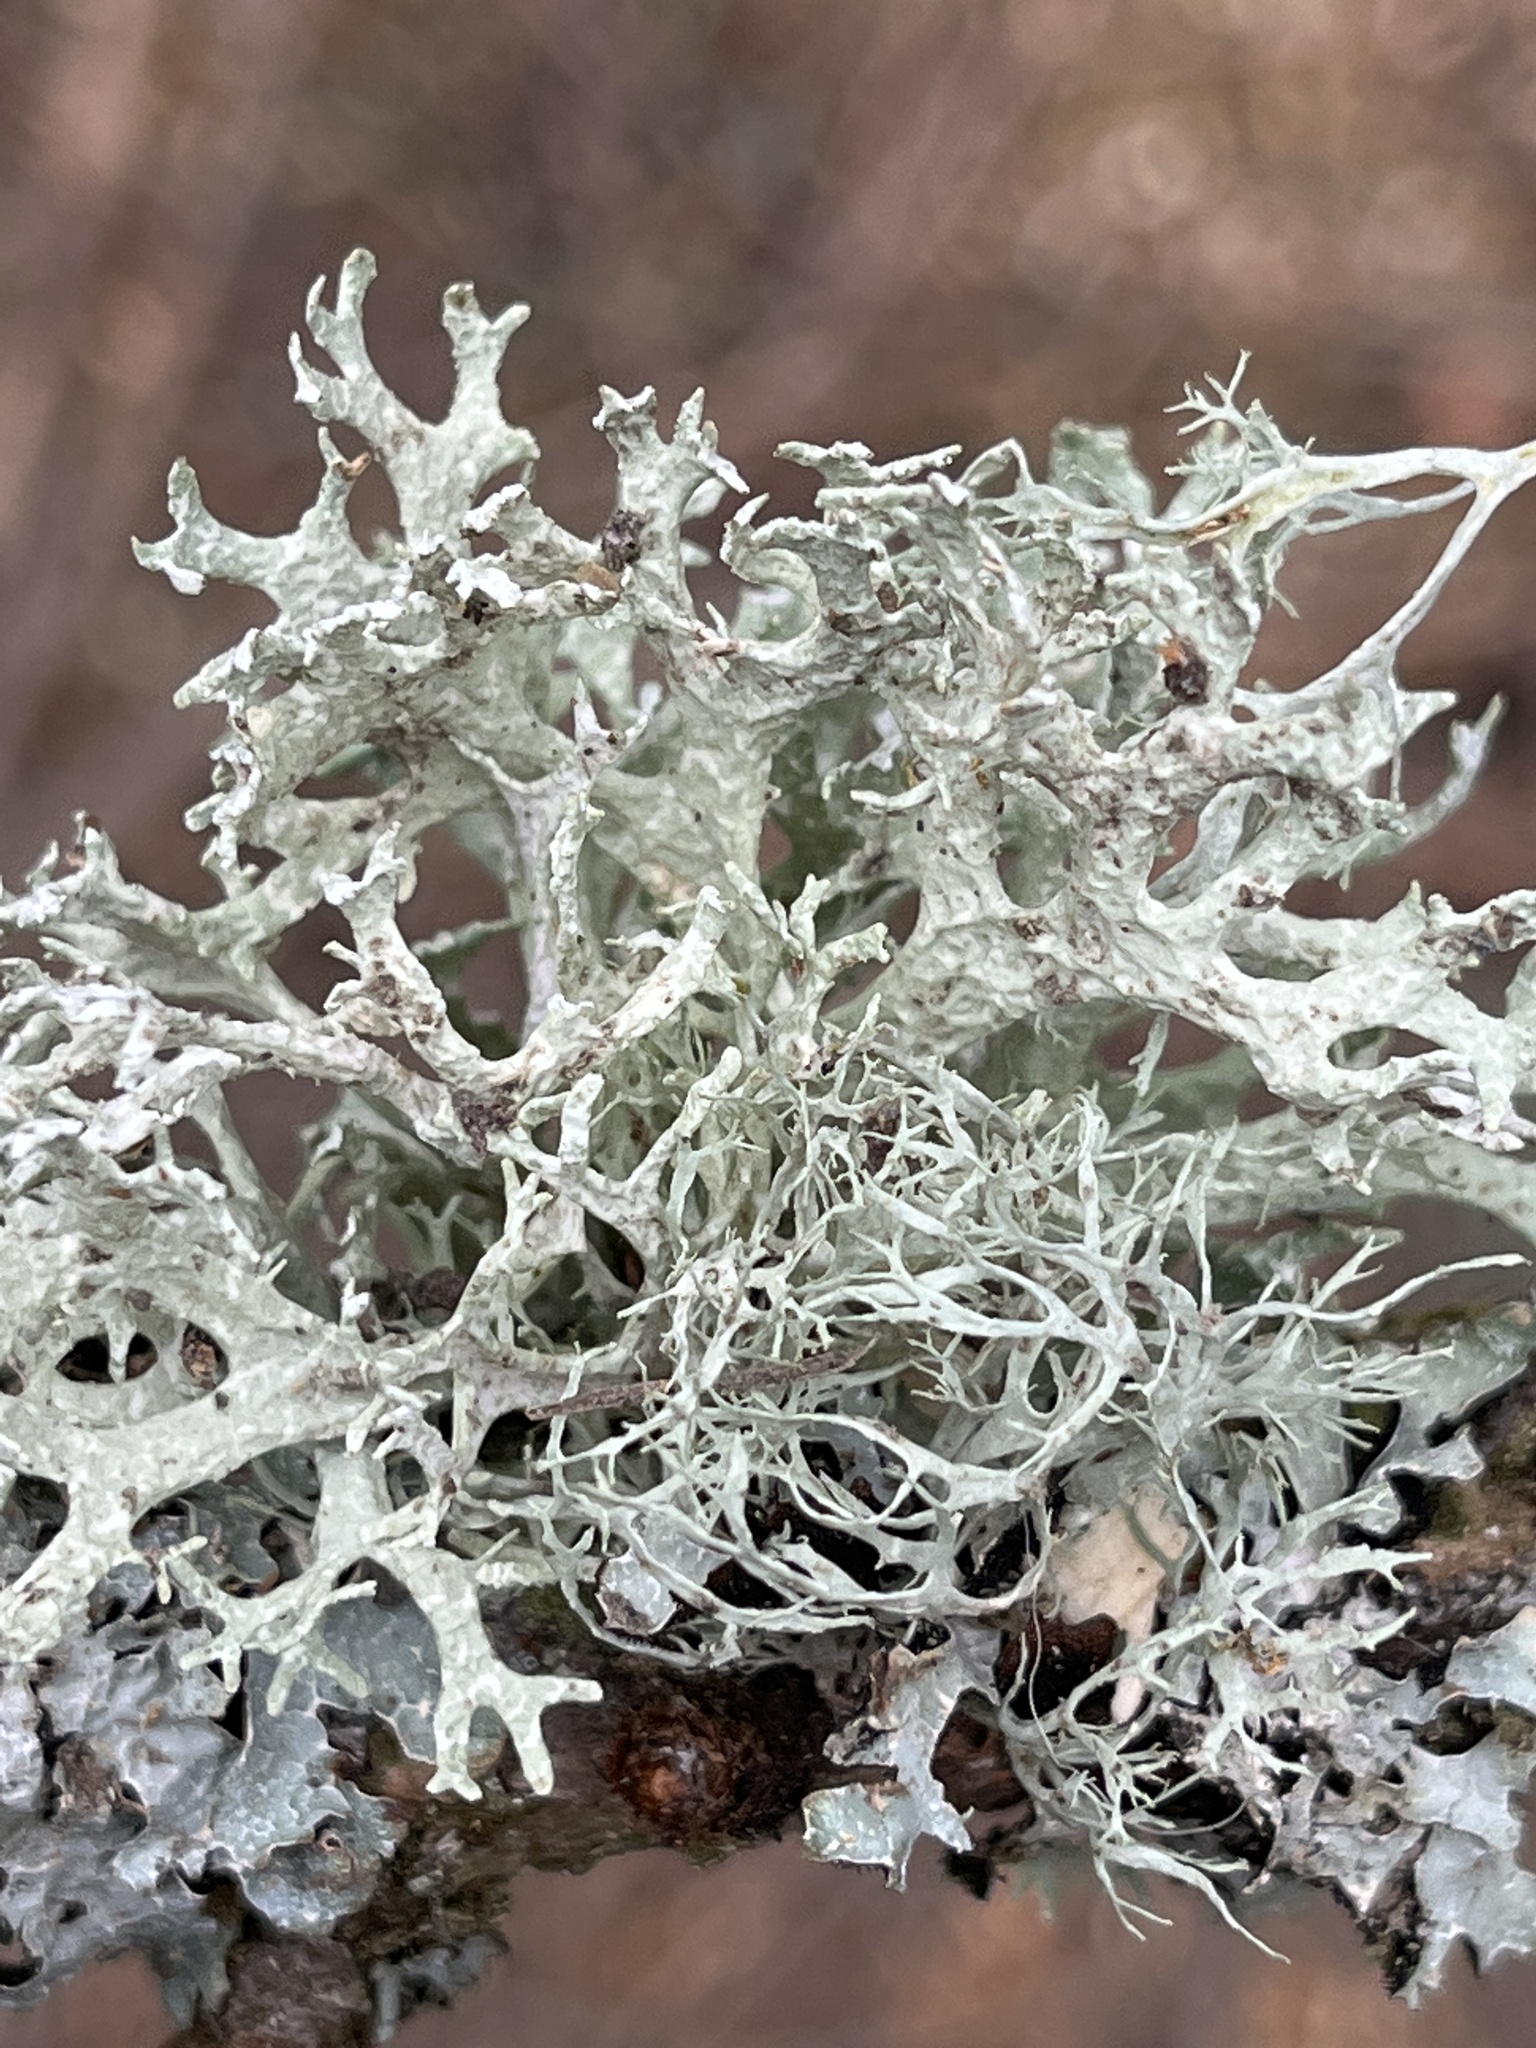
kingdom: Fungi
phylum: Ascomycota
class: Lecanoromycetes
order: Lecanorales
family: Parmeliaceae
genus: Evernia
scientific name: Evernia prunastri
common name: Oak moss
